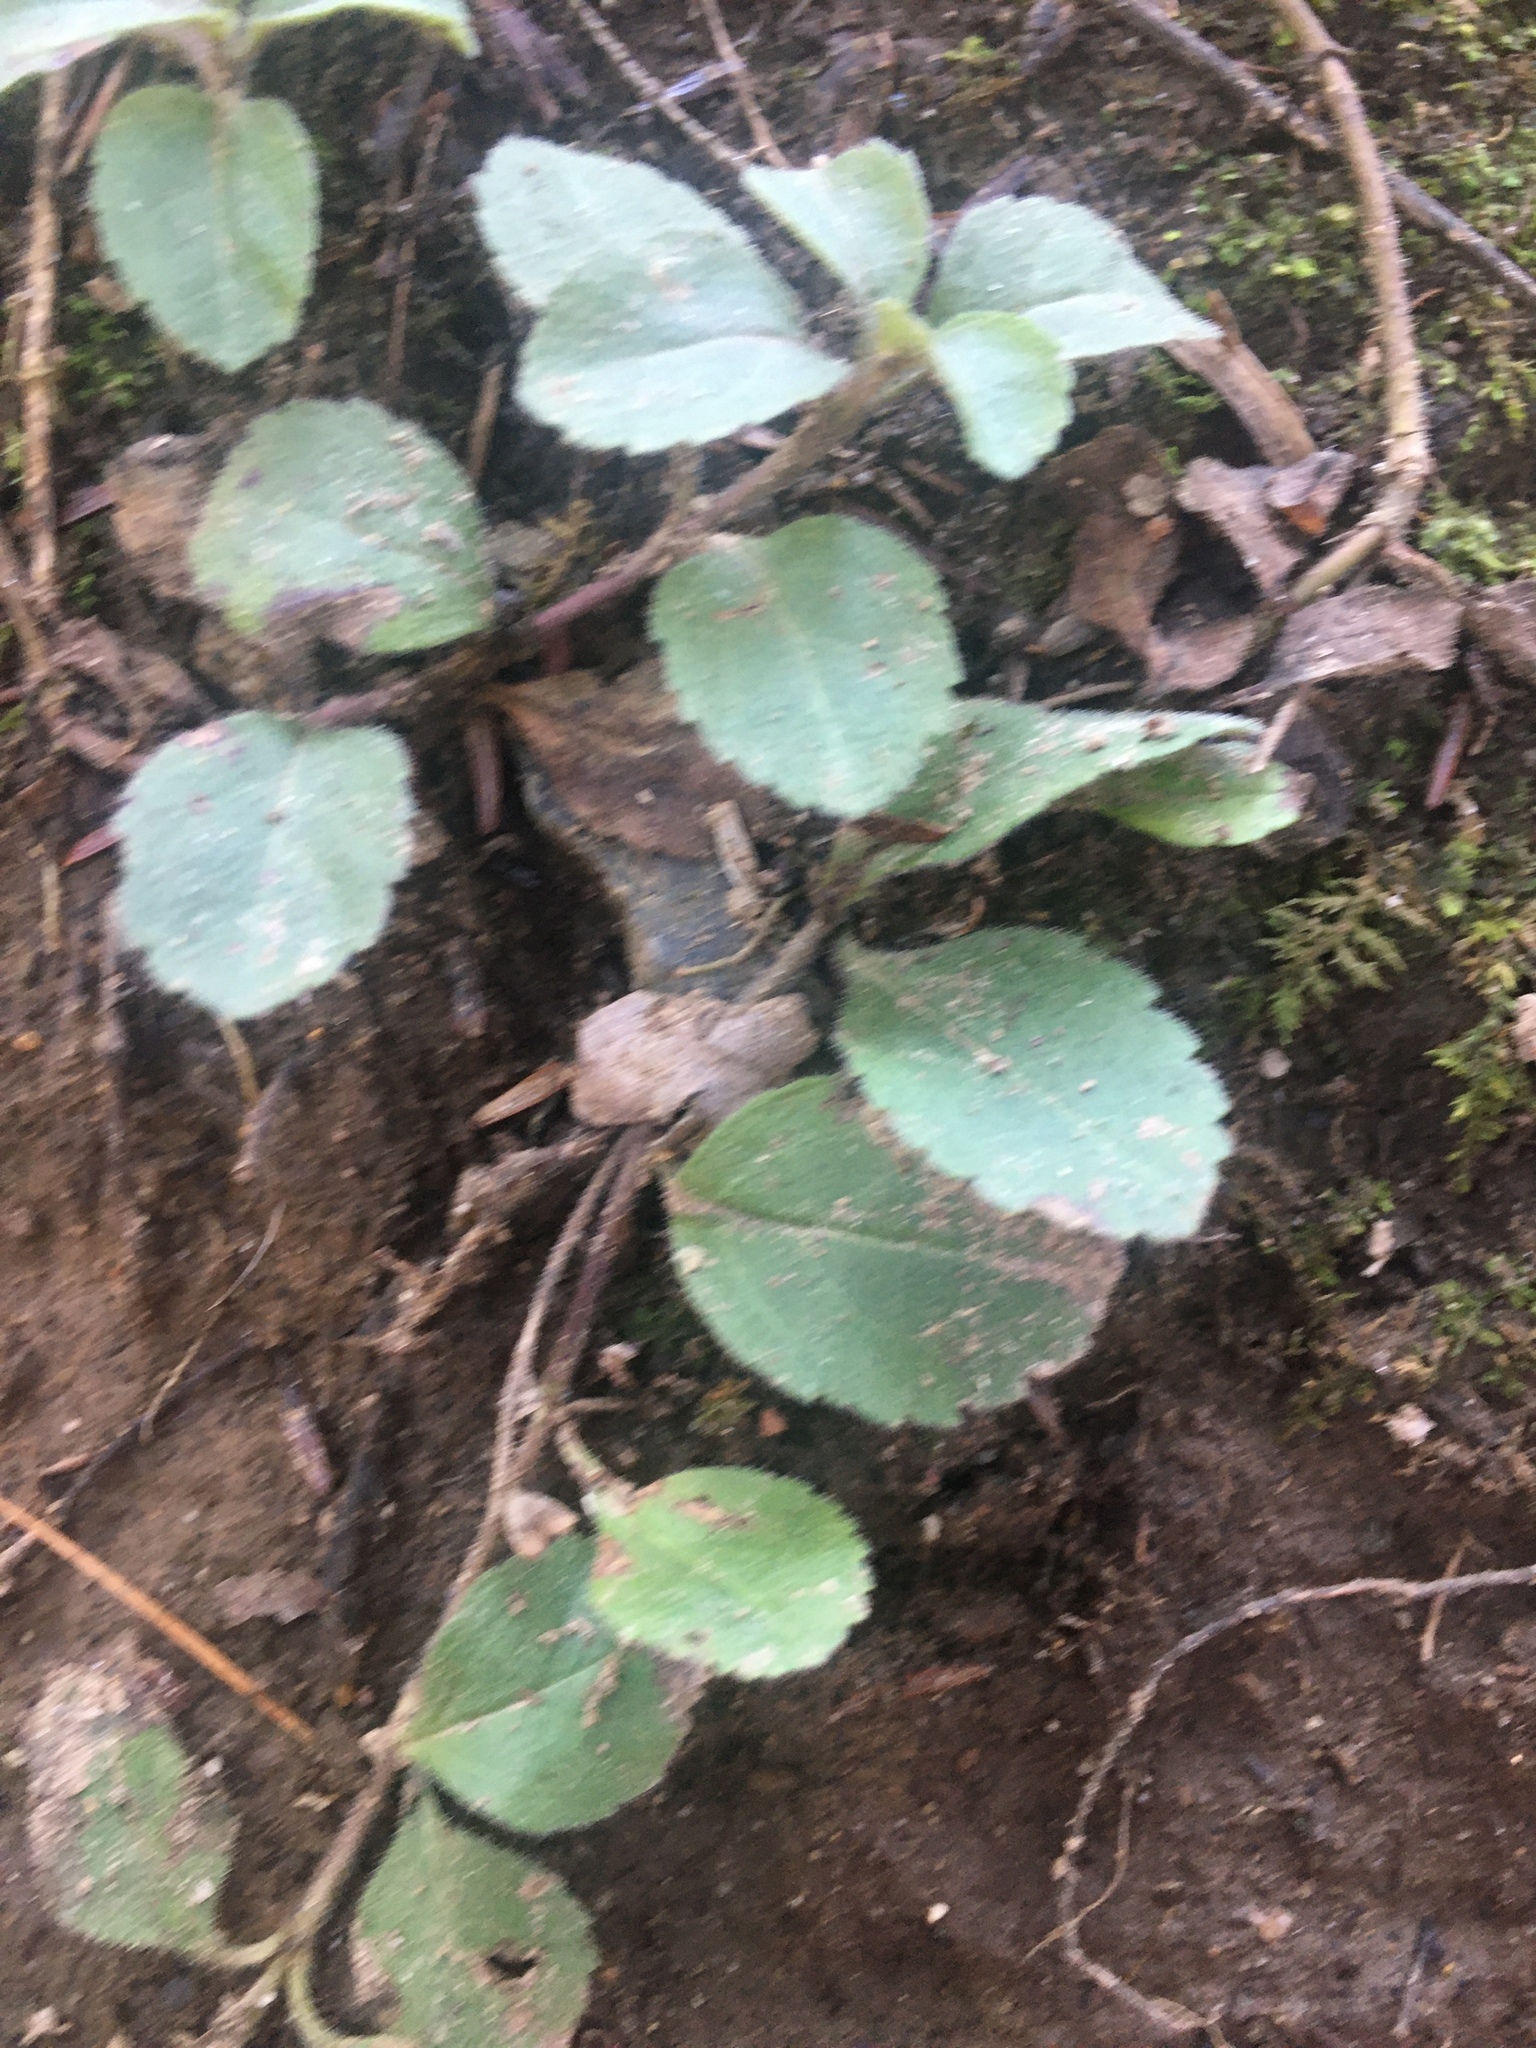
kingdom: Plantae
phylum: Tracheophyta
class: Magnoliopsida
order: Lamiales
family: Plantaginaceae
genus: Veronica
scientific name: Veronica officinalis
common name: Common speedwell
